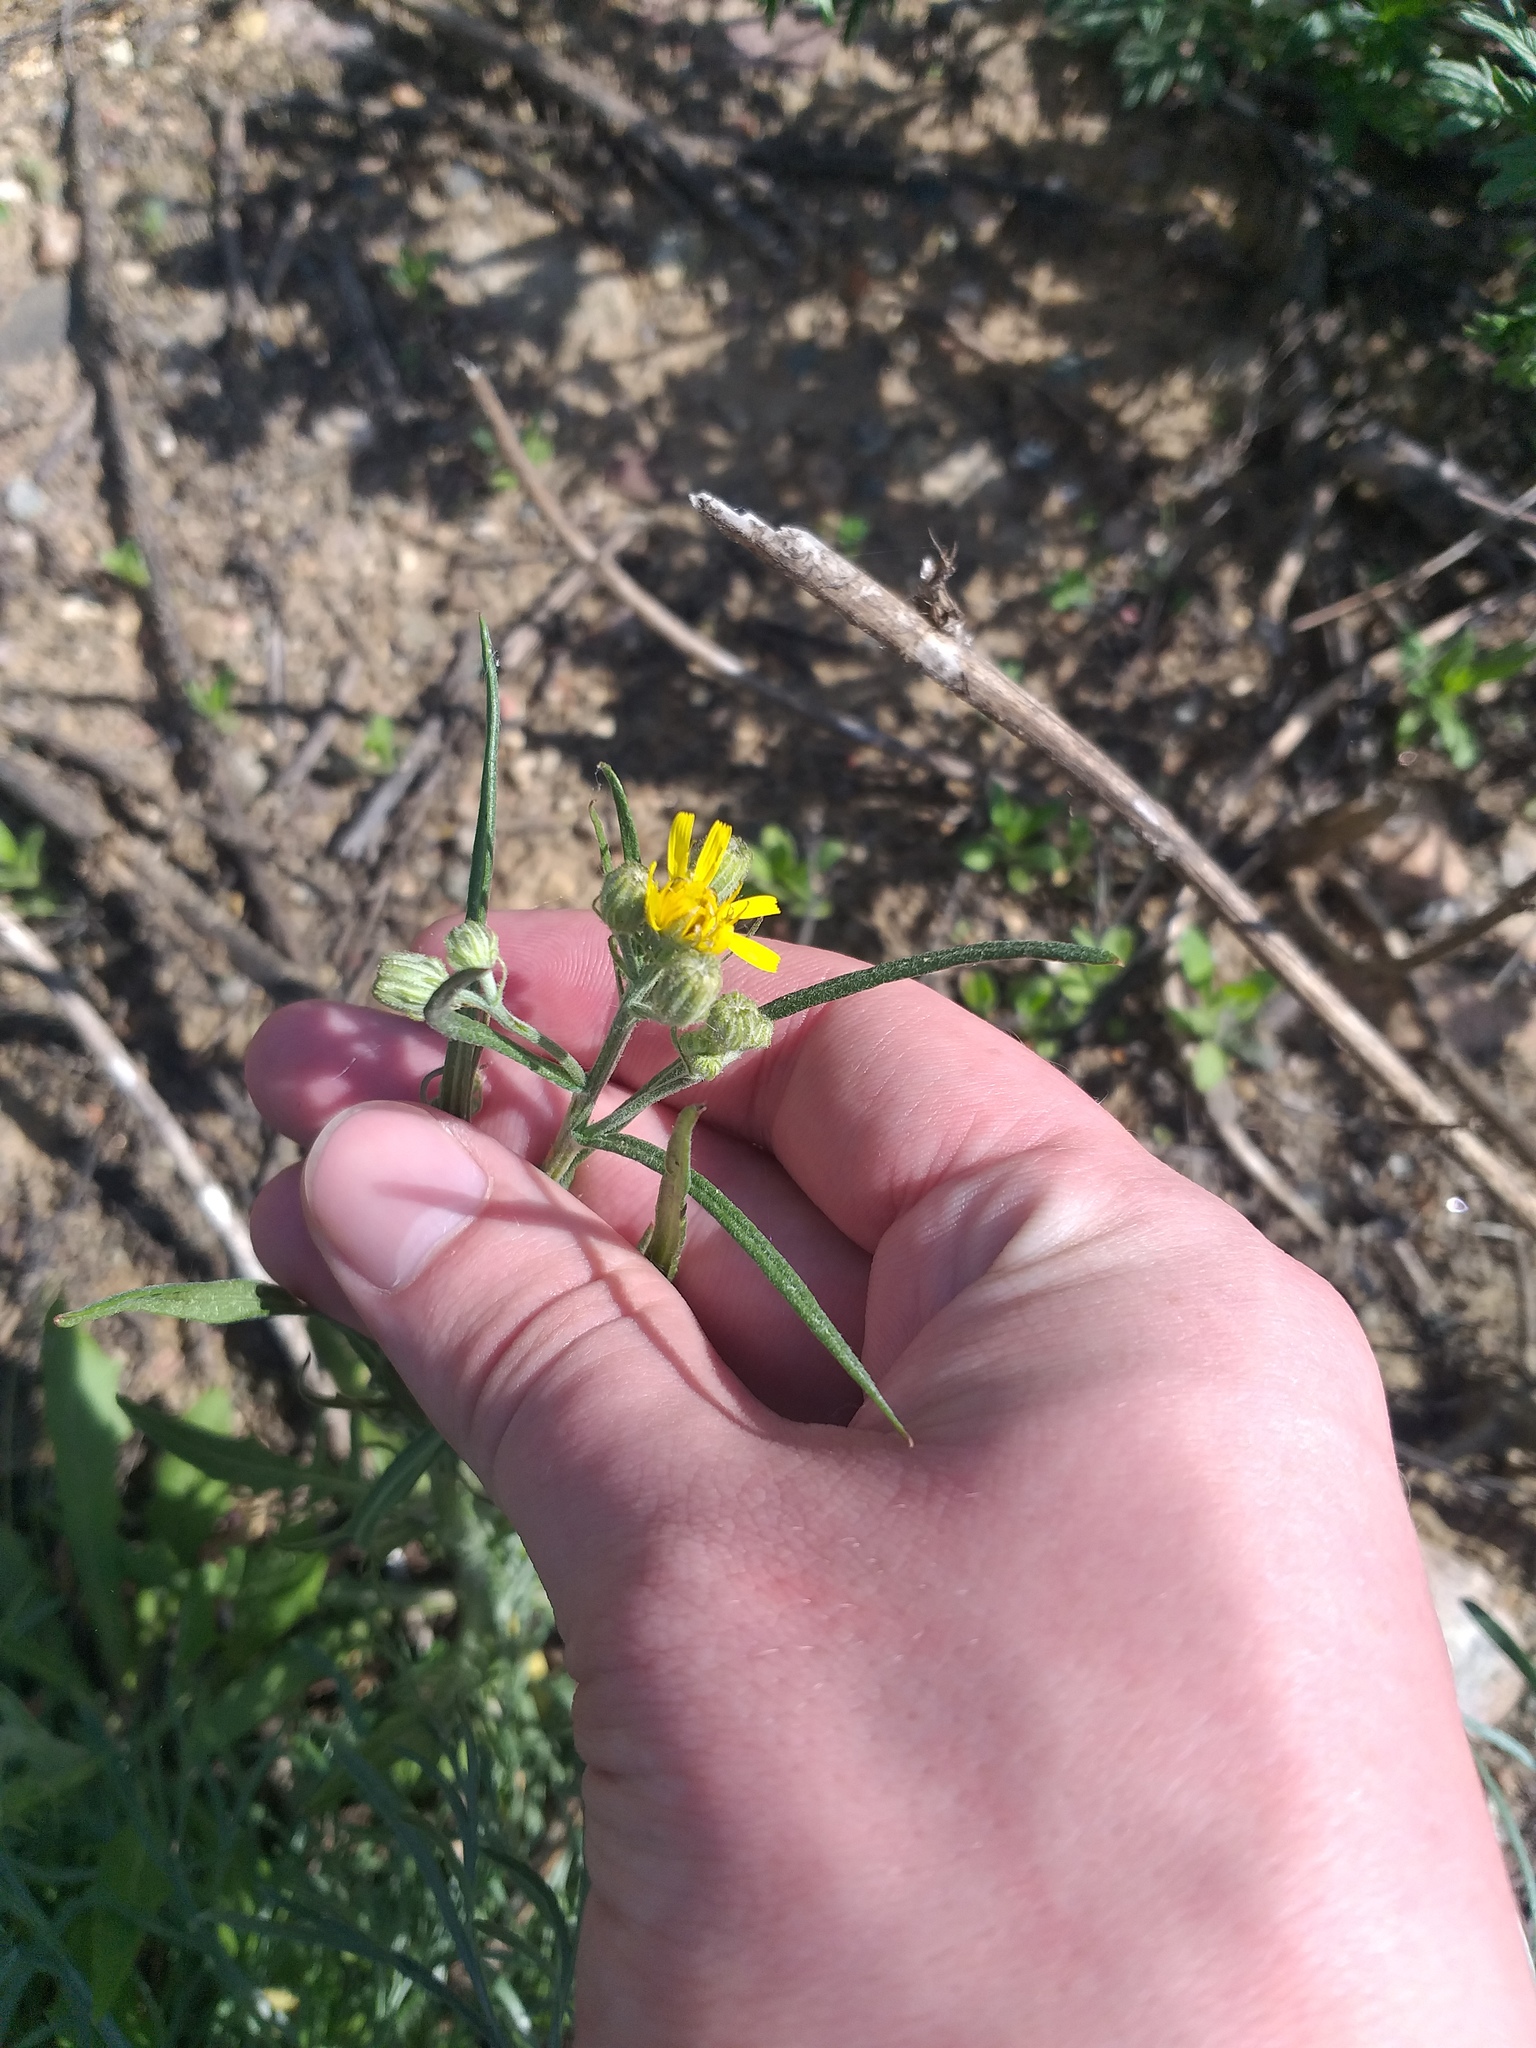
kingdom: Plantae
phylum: Tracheophyta
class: Magnoliopsida
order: Asterales
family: Asteraceae
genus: Crepis
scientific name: Crepis tectorum
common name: Narrow-leaved hawk's-beard
